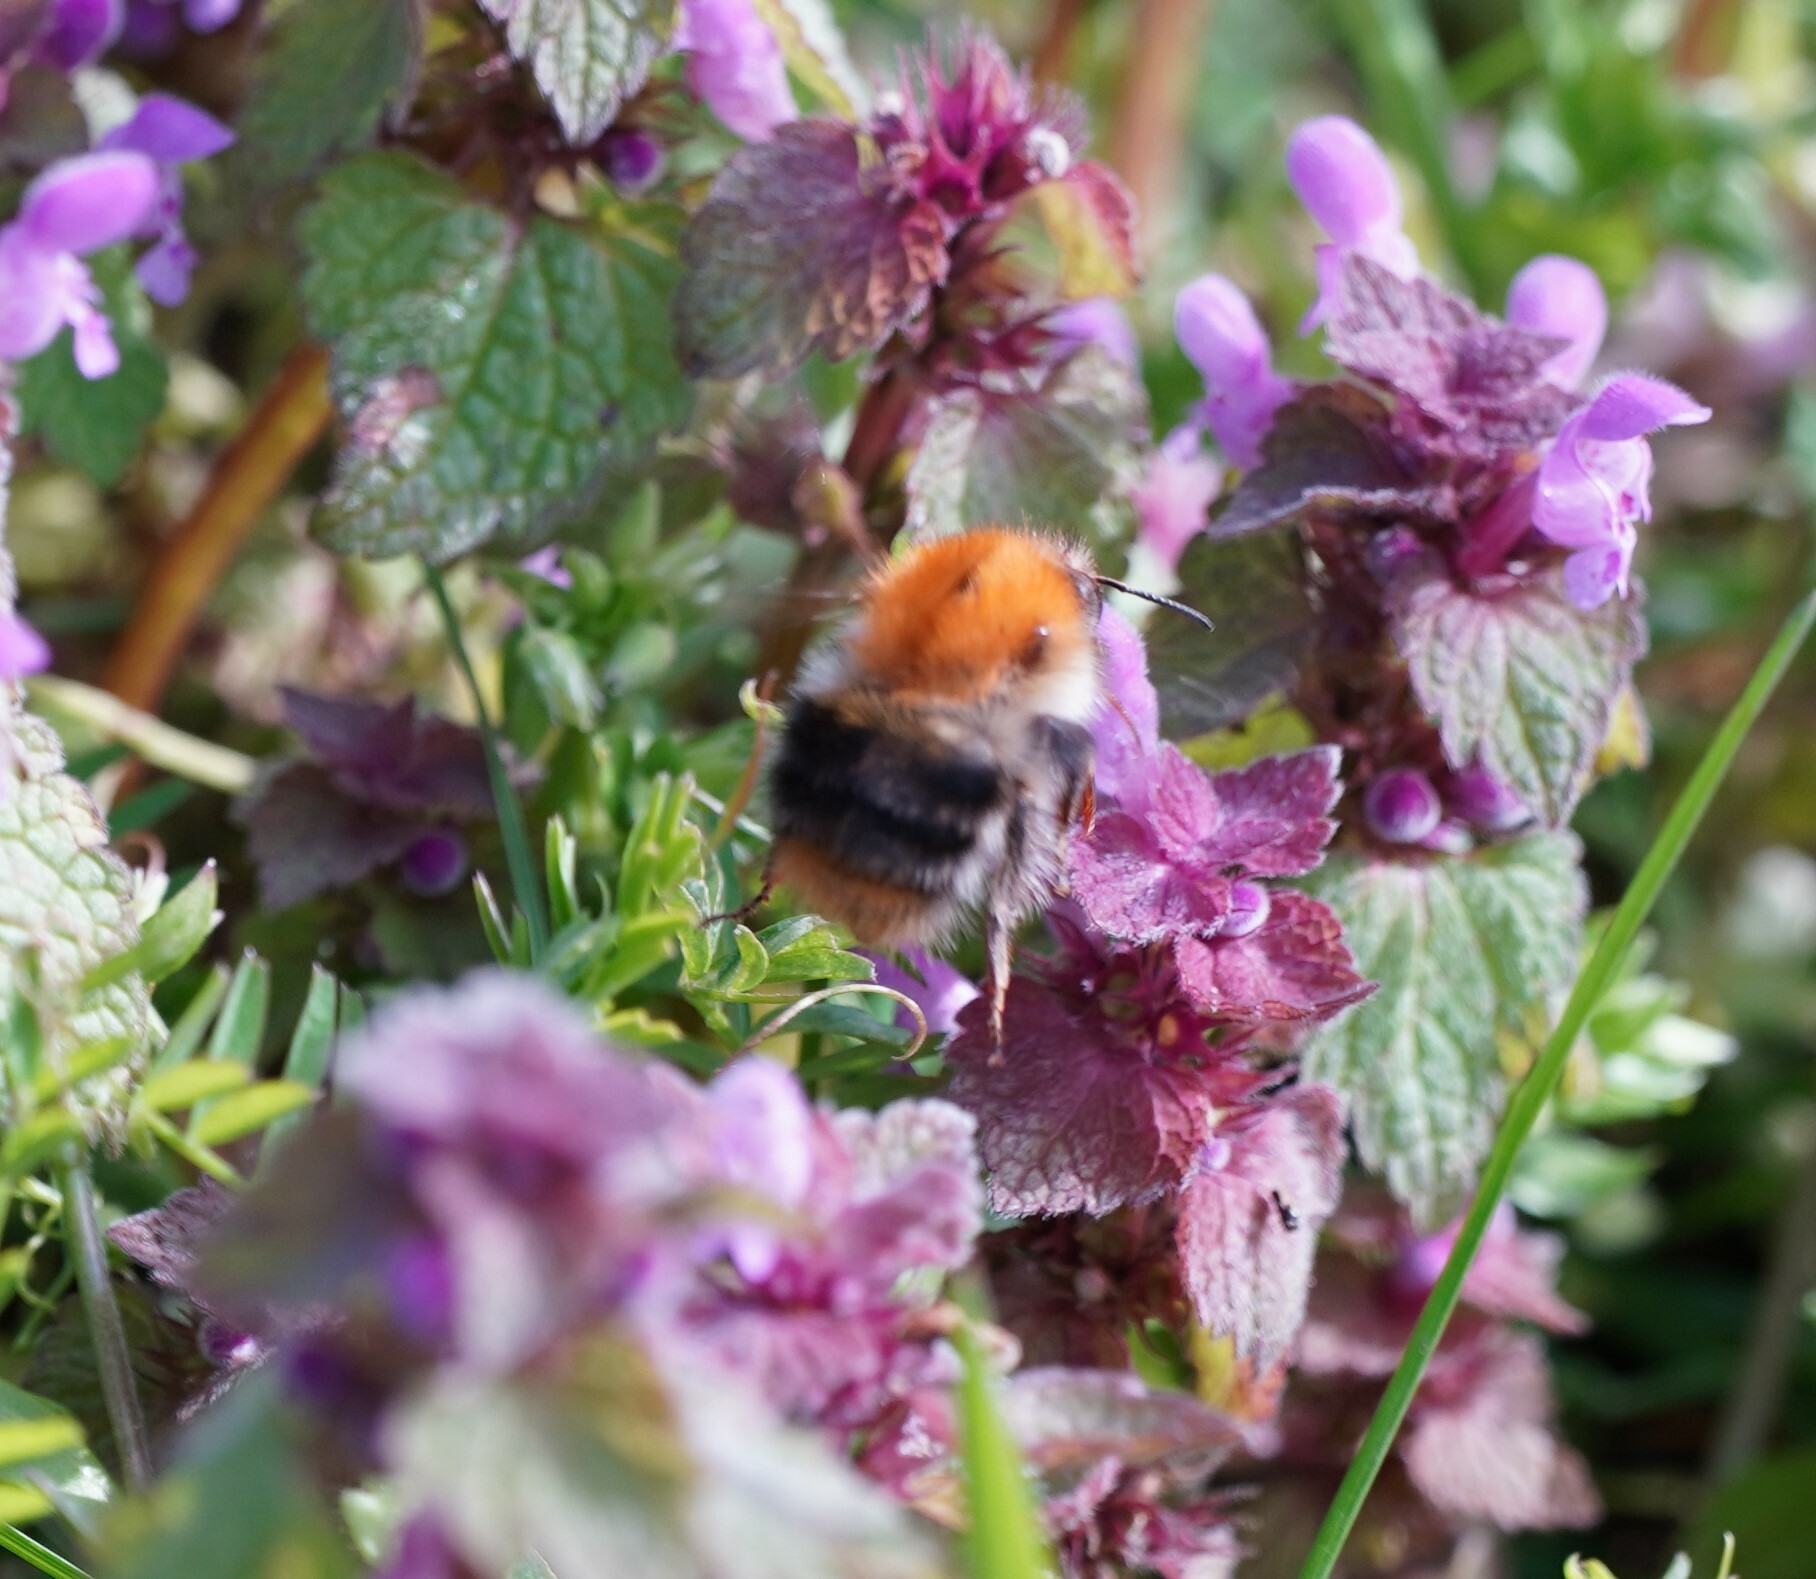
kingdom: Animalia
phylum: Arthropoda
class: Insecta
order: Hymenoptera
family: Apidae
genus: Bombus
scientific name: Bombus pascuorum
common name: Common carder bee
